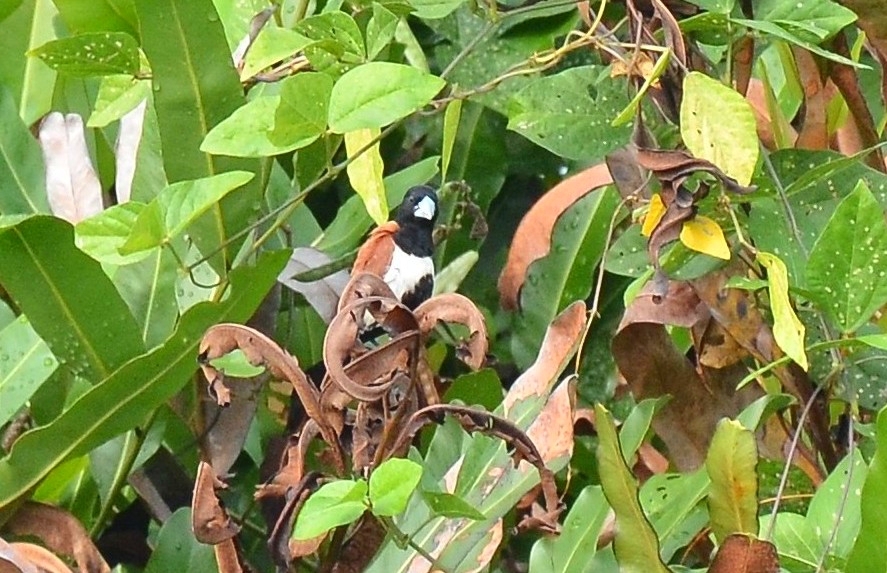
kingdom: Animalia
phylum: Chordata
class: Aves
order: Passeriformes
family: Estrildidae
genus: Lonchura
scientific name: Lonchura malacca
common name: Tricolored munia
